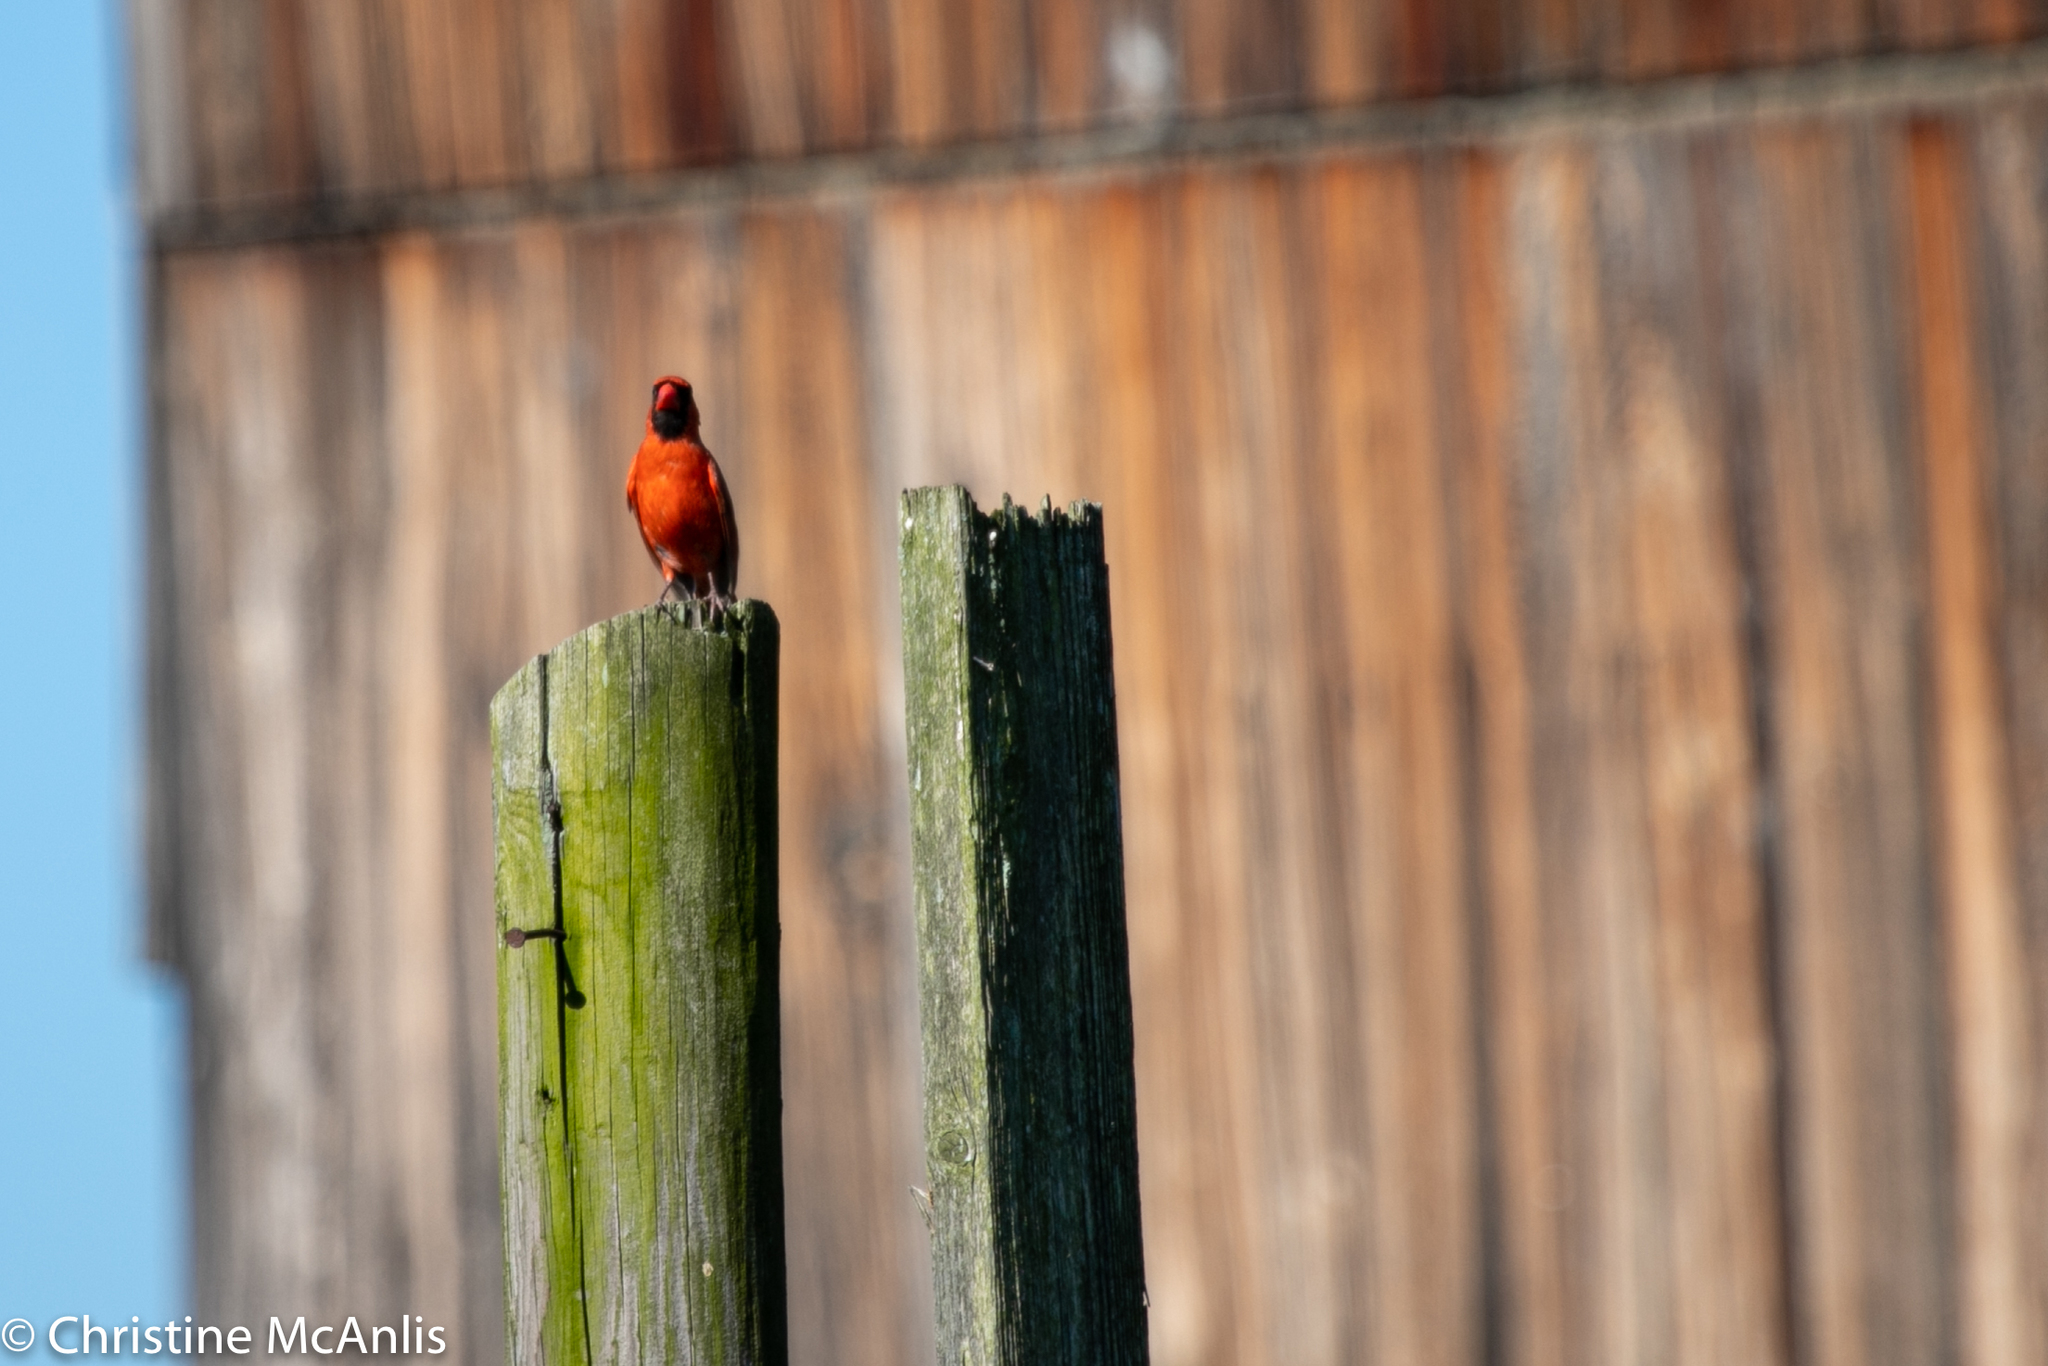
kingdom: Animalia
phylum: Chordata
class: Aves
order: Passeriformes
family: Cardinalidae
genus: Cardinalis
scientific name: Cardinalis cardinalis
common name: Northern cardinal
